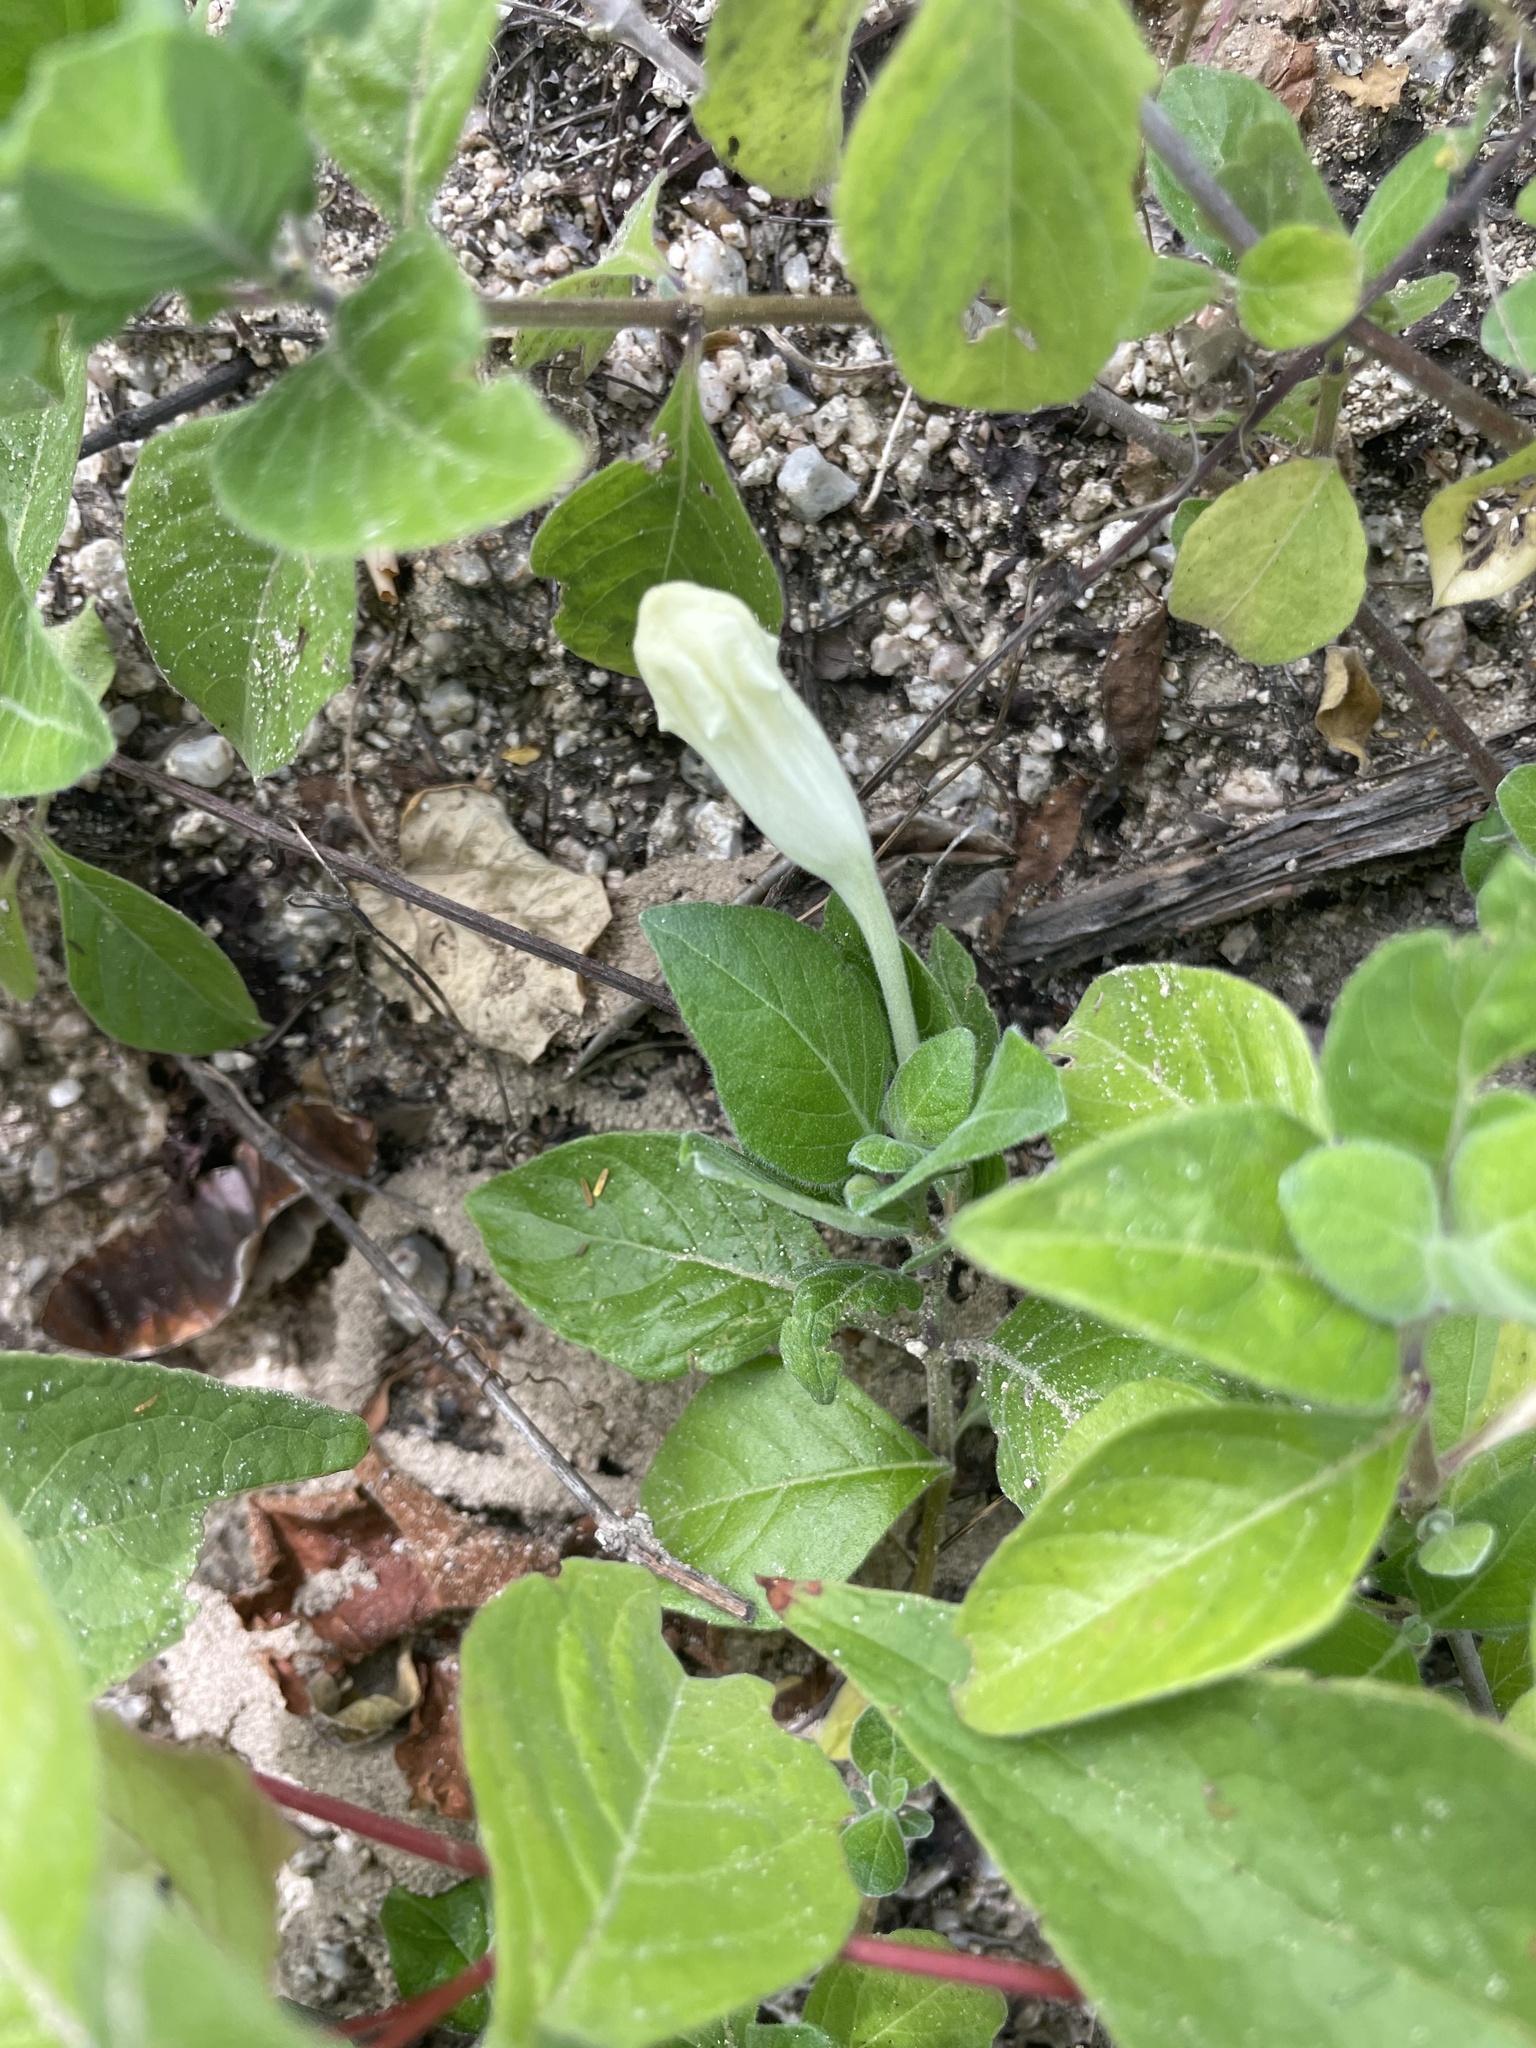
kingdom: Plantae
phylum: Tracheophyta
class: Magnoliopsida
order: Lamiales
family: Acanthaceae
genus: Ruellia
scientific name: Ruellia leucantha
